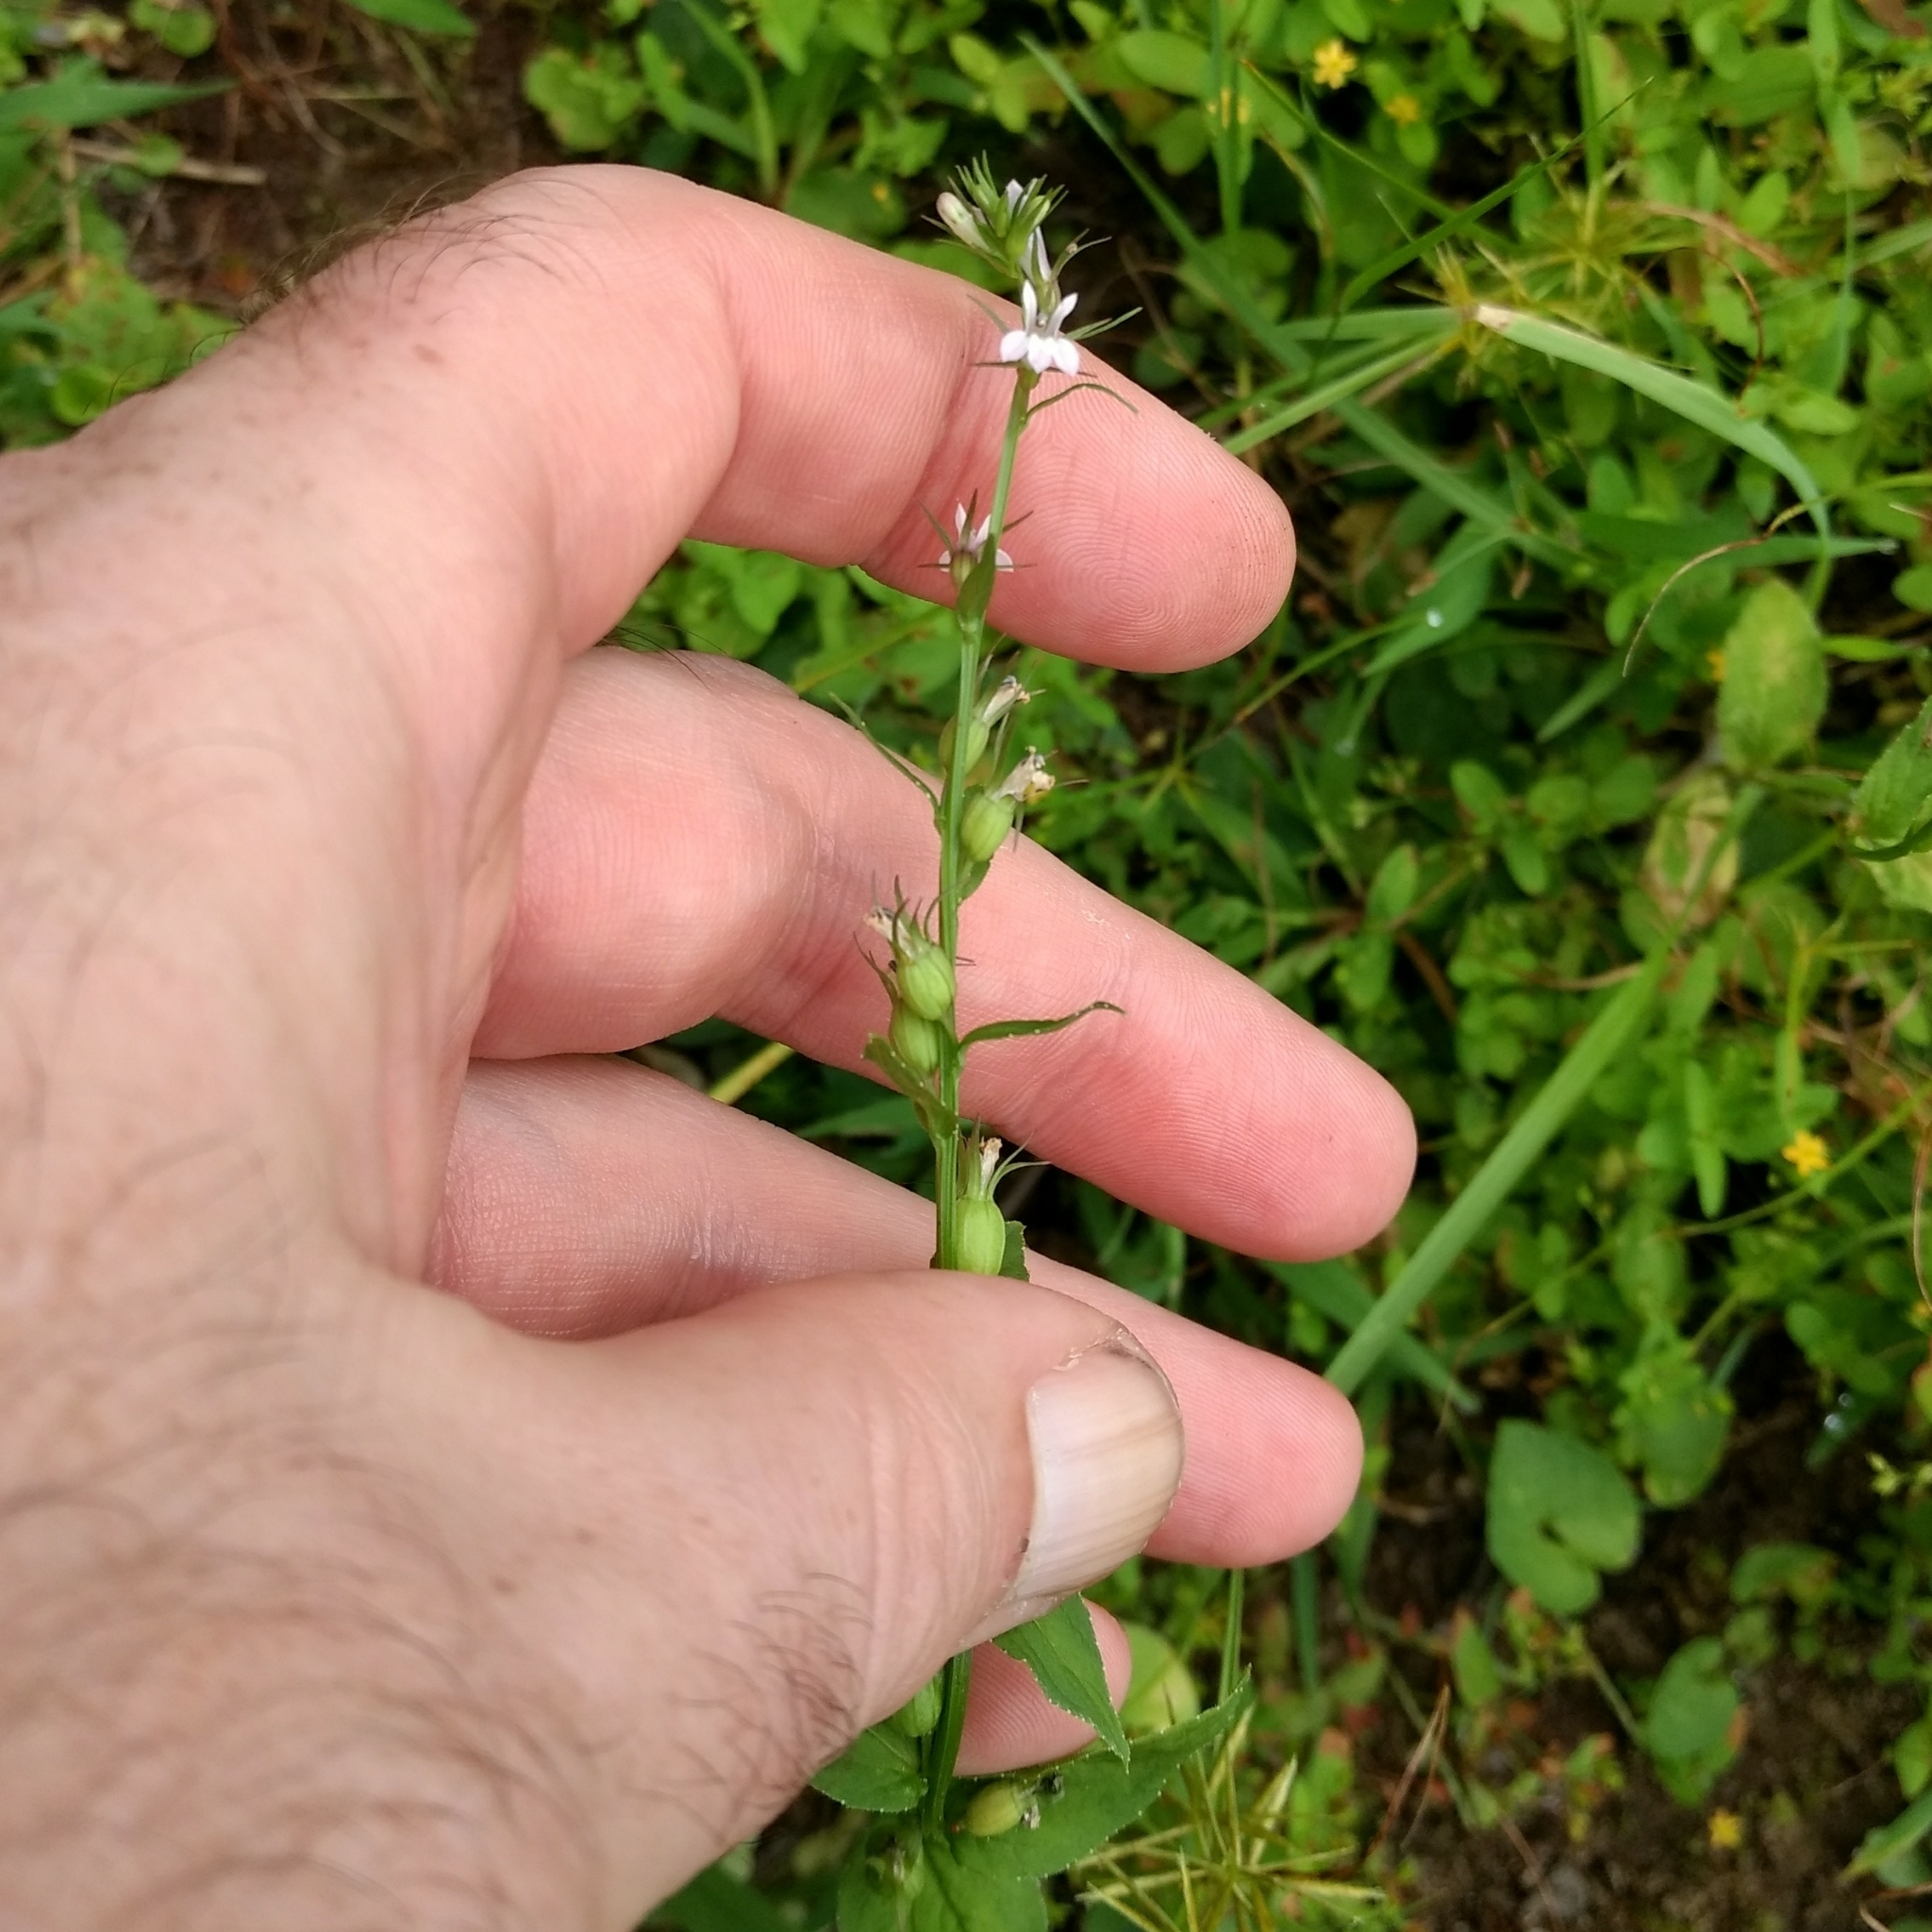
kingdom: Plantae
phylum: Tracheophyta
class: Magnoliopsida
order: Asterales
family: Campanulaceae
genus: Lobelia
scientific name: Lobelia inflata
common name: Indian tobacco
